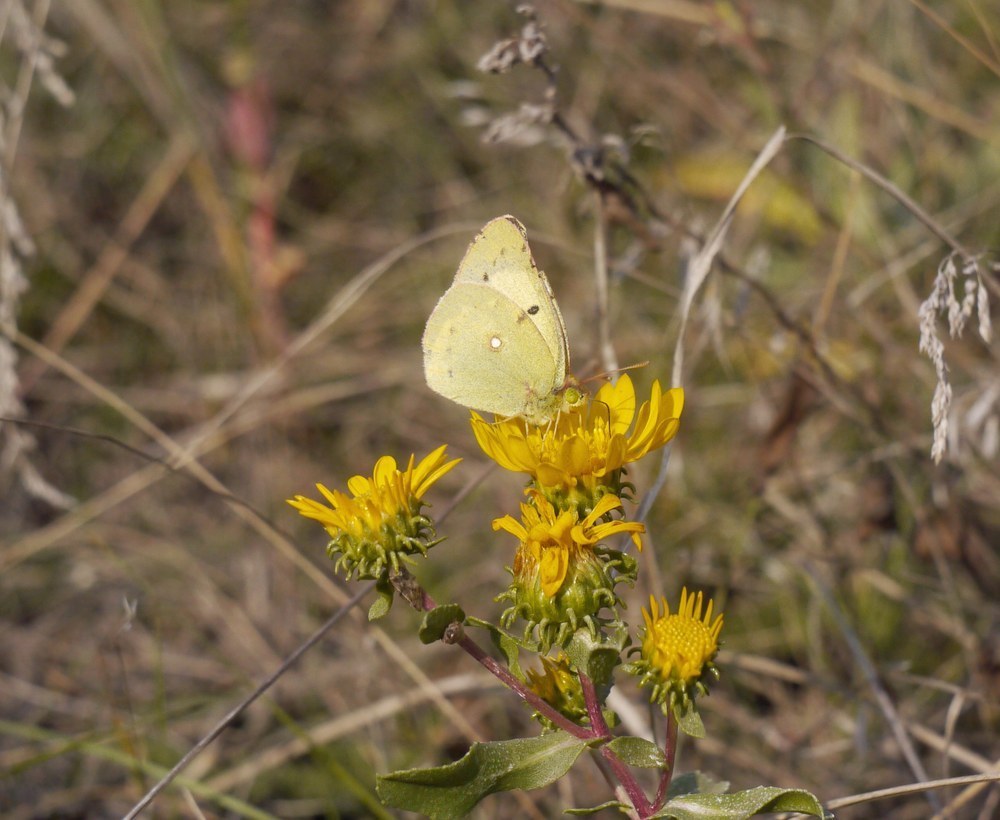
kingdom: Animalia
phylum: Arthropoda
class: Insecta
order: Lepidoptera
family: Pieridae
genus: Colias
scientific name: Colias erate
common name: Eastern pale clouded yellow
